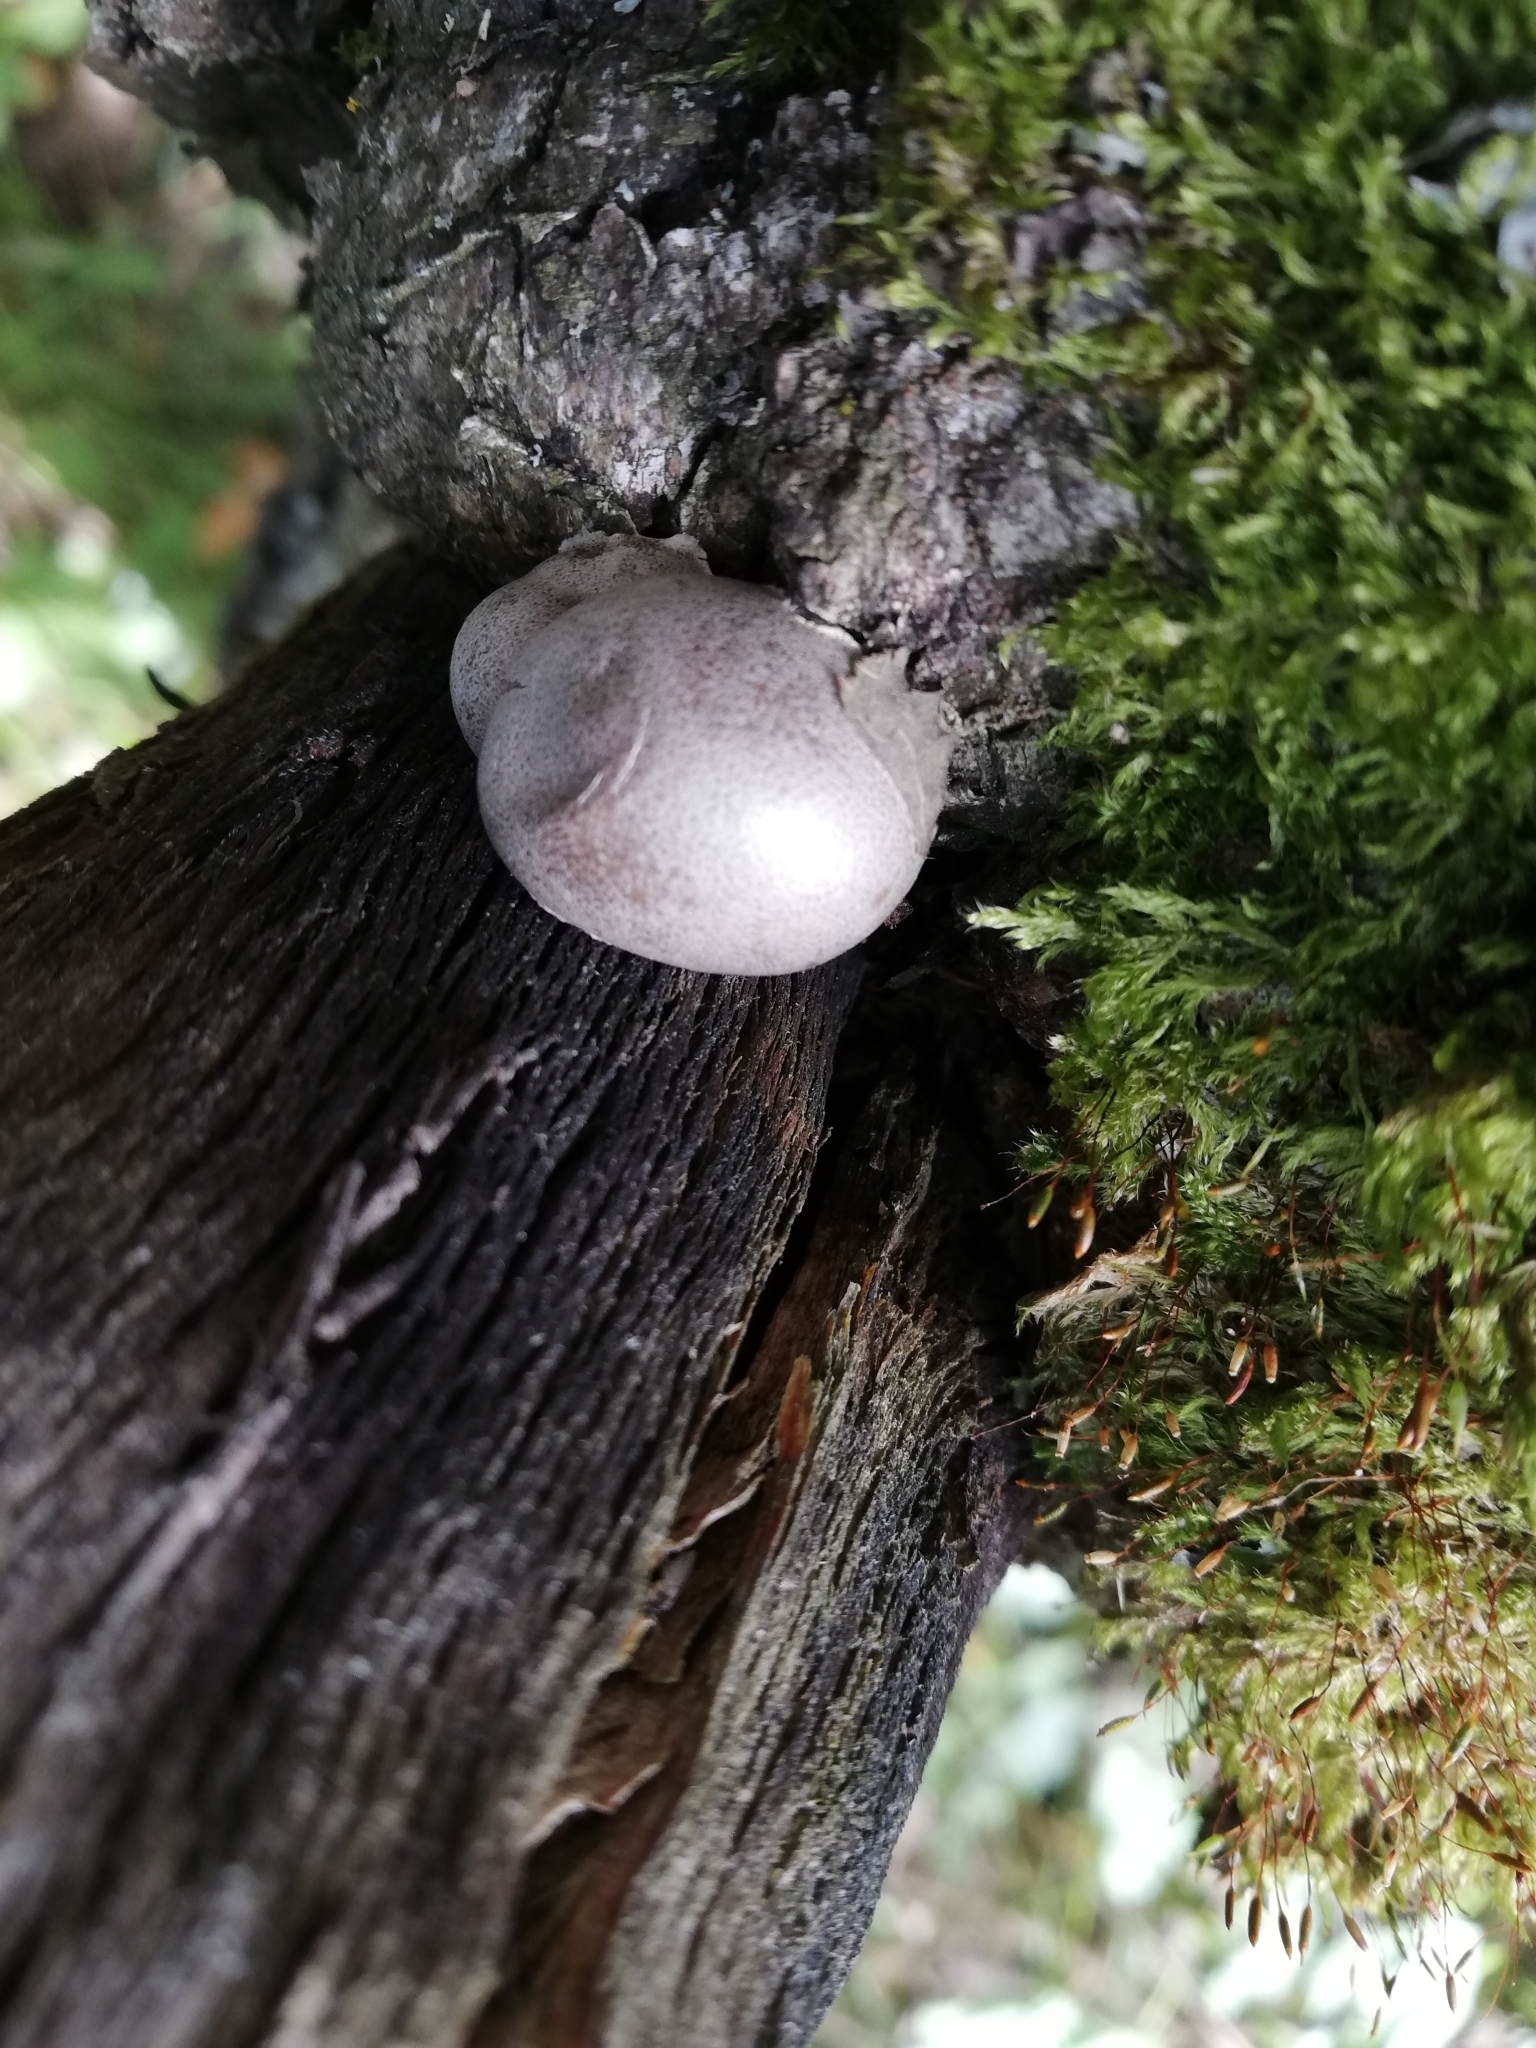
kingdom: Protozoa
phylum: Mycetozoa
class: Myxomycetes
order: Cribrariales
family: Tubiferaceae
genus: Reticularia
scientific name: Reticularia lycoperdon
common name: False puffball
